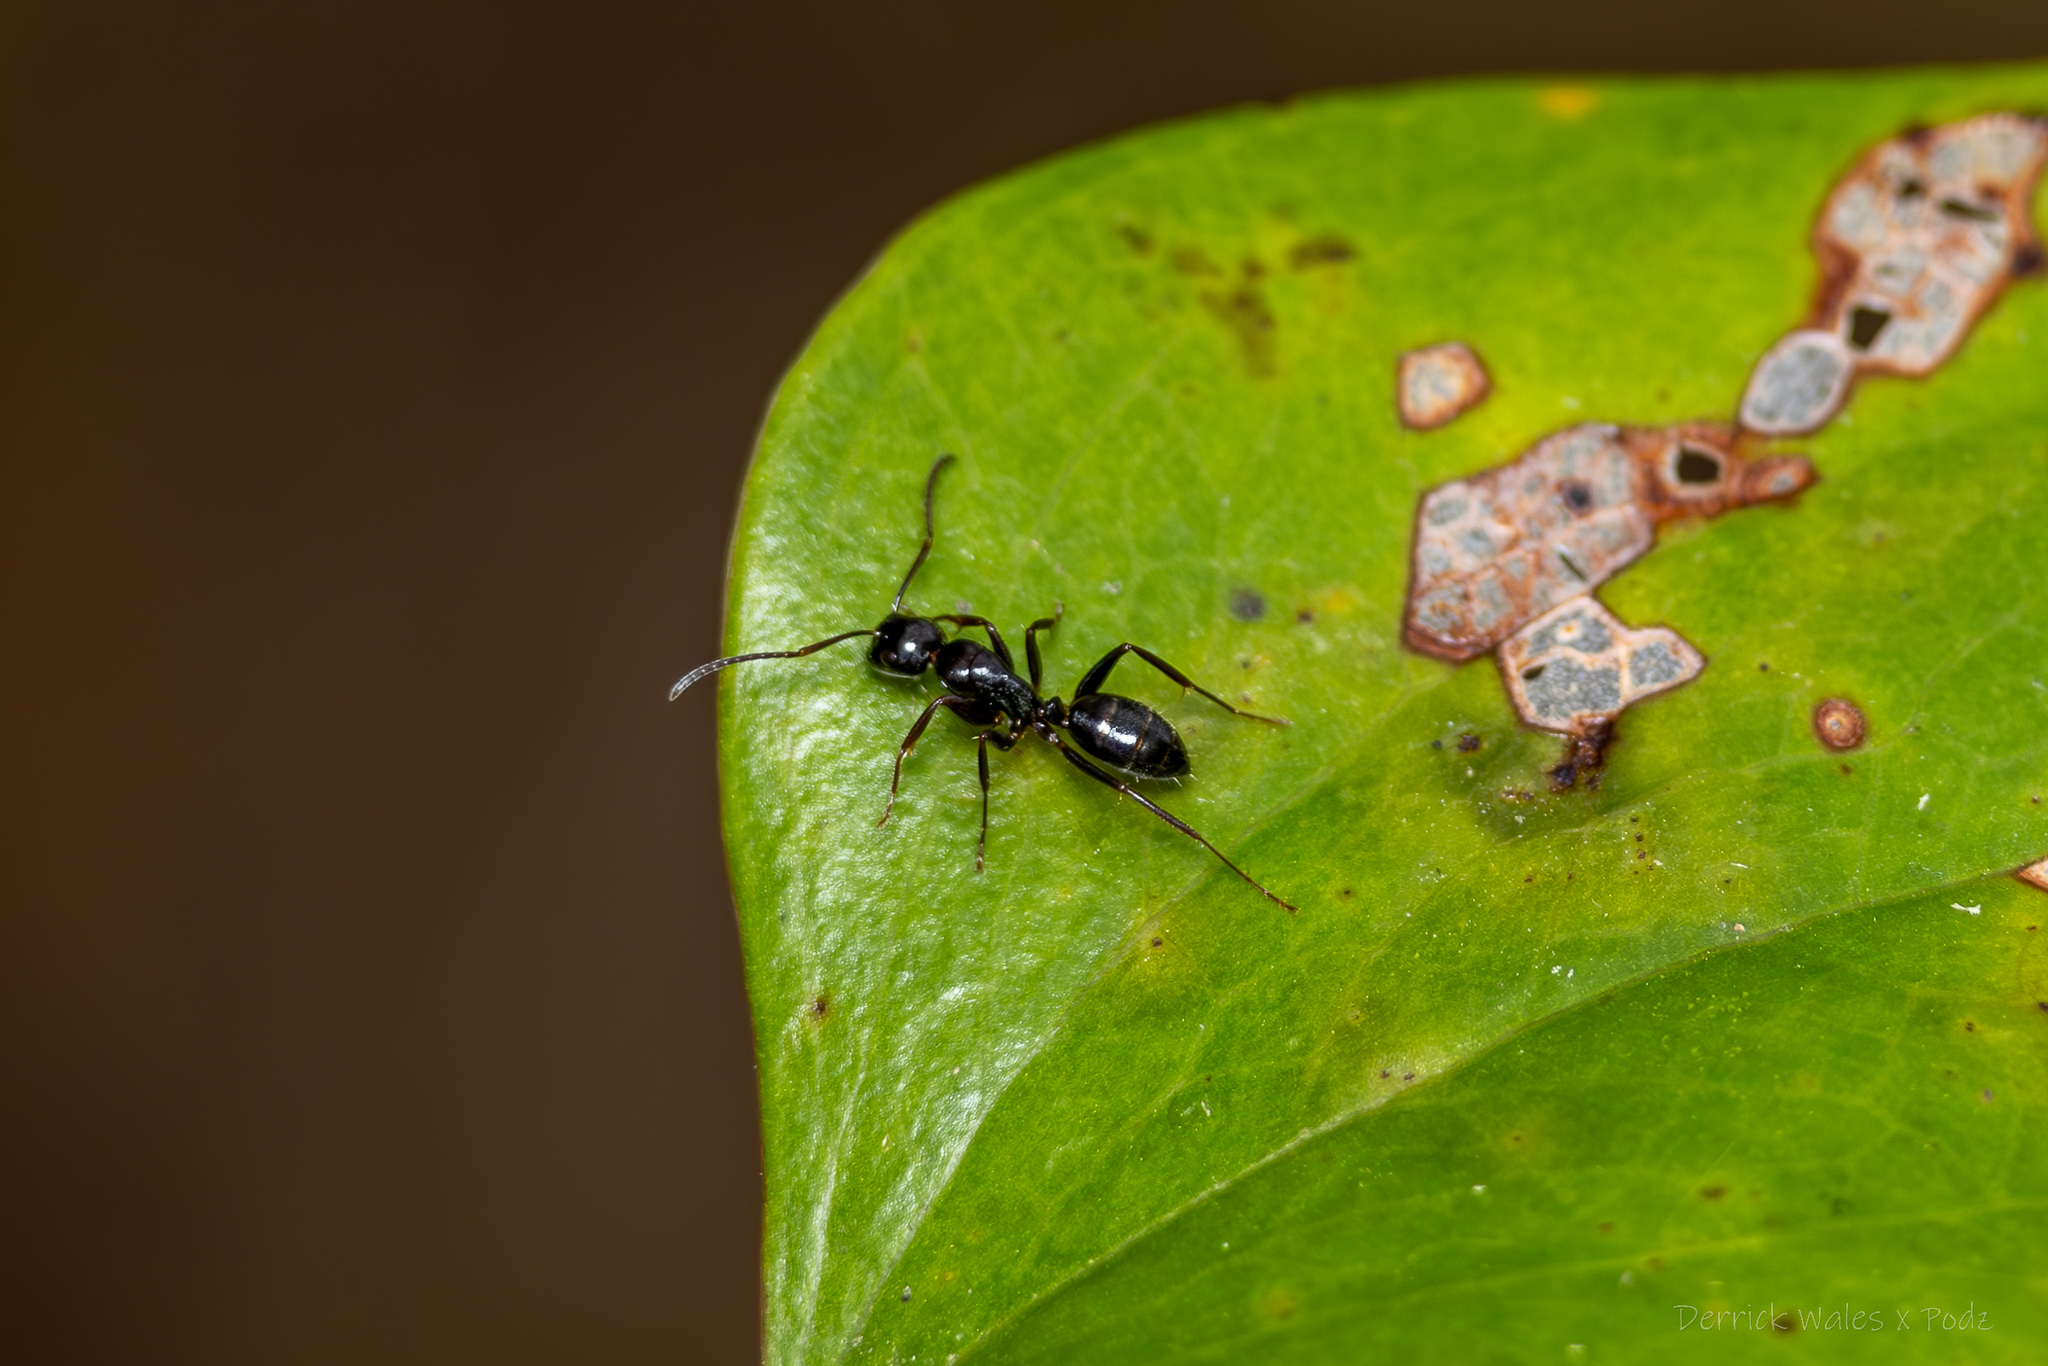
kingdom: Animalia
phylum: Arthropoda
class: Insecta
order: Hymenoptera
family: Formicidae
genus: Camponotus
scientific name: Camponotus nearcticus
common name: Smaller carpenter ant
